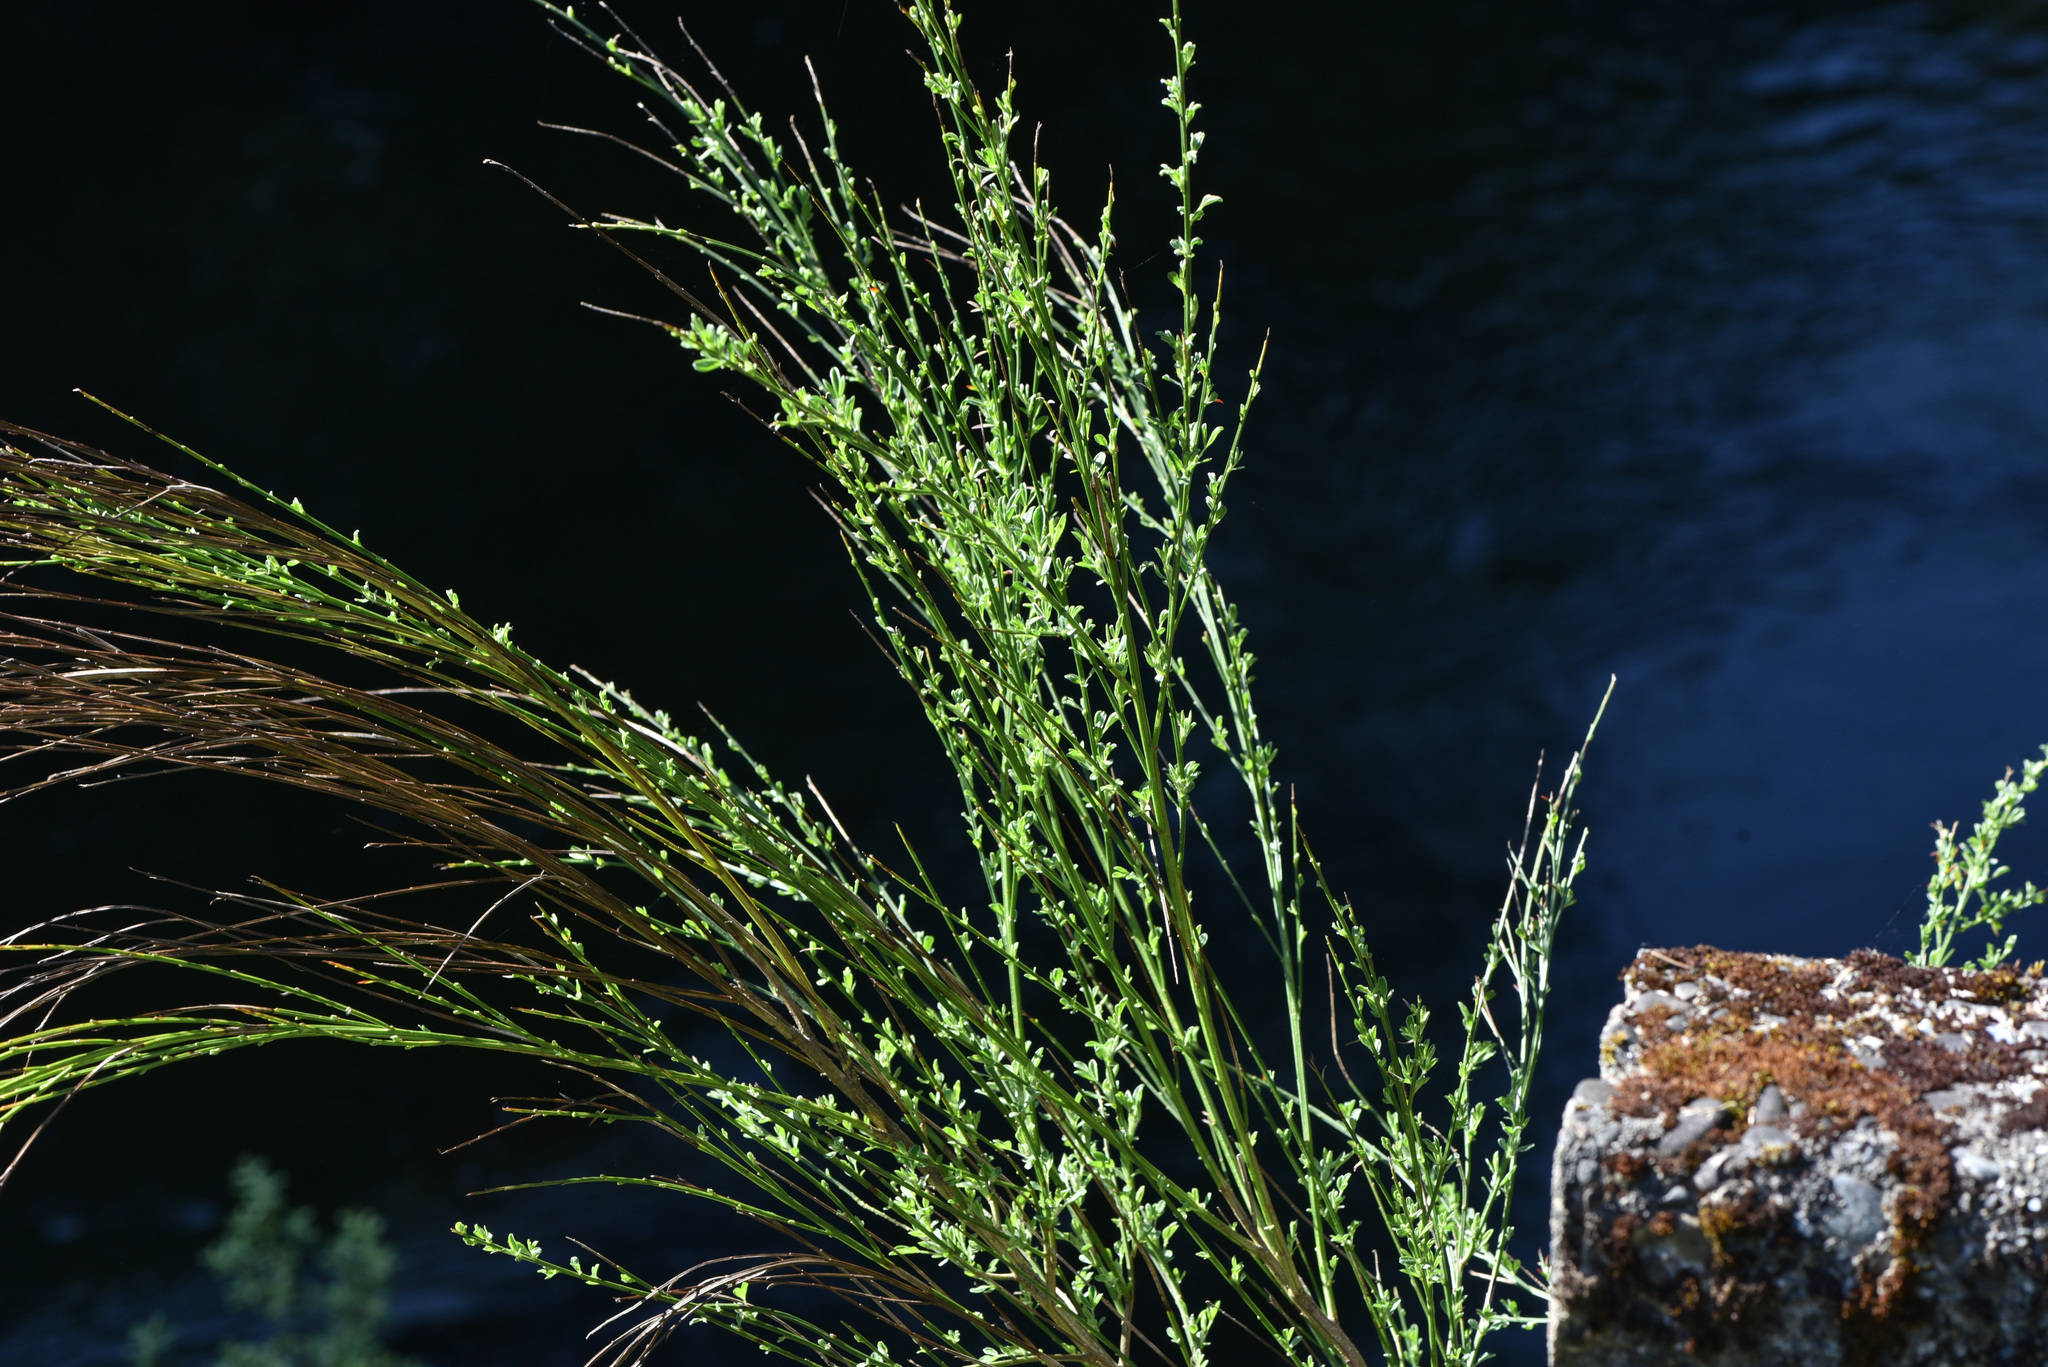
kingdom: Plantae
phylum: Tracheophyta
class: Magnoliopsida
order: Fabales
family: Fabaceae
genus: Cytisus
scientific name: Cytisus scoparius
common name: Scotch broom
